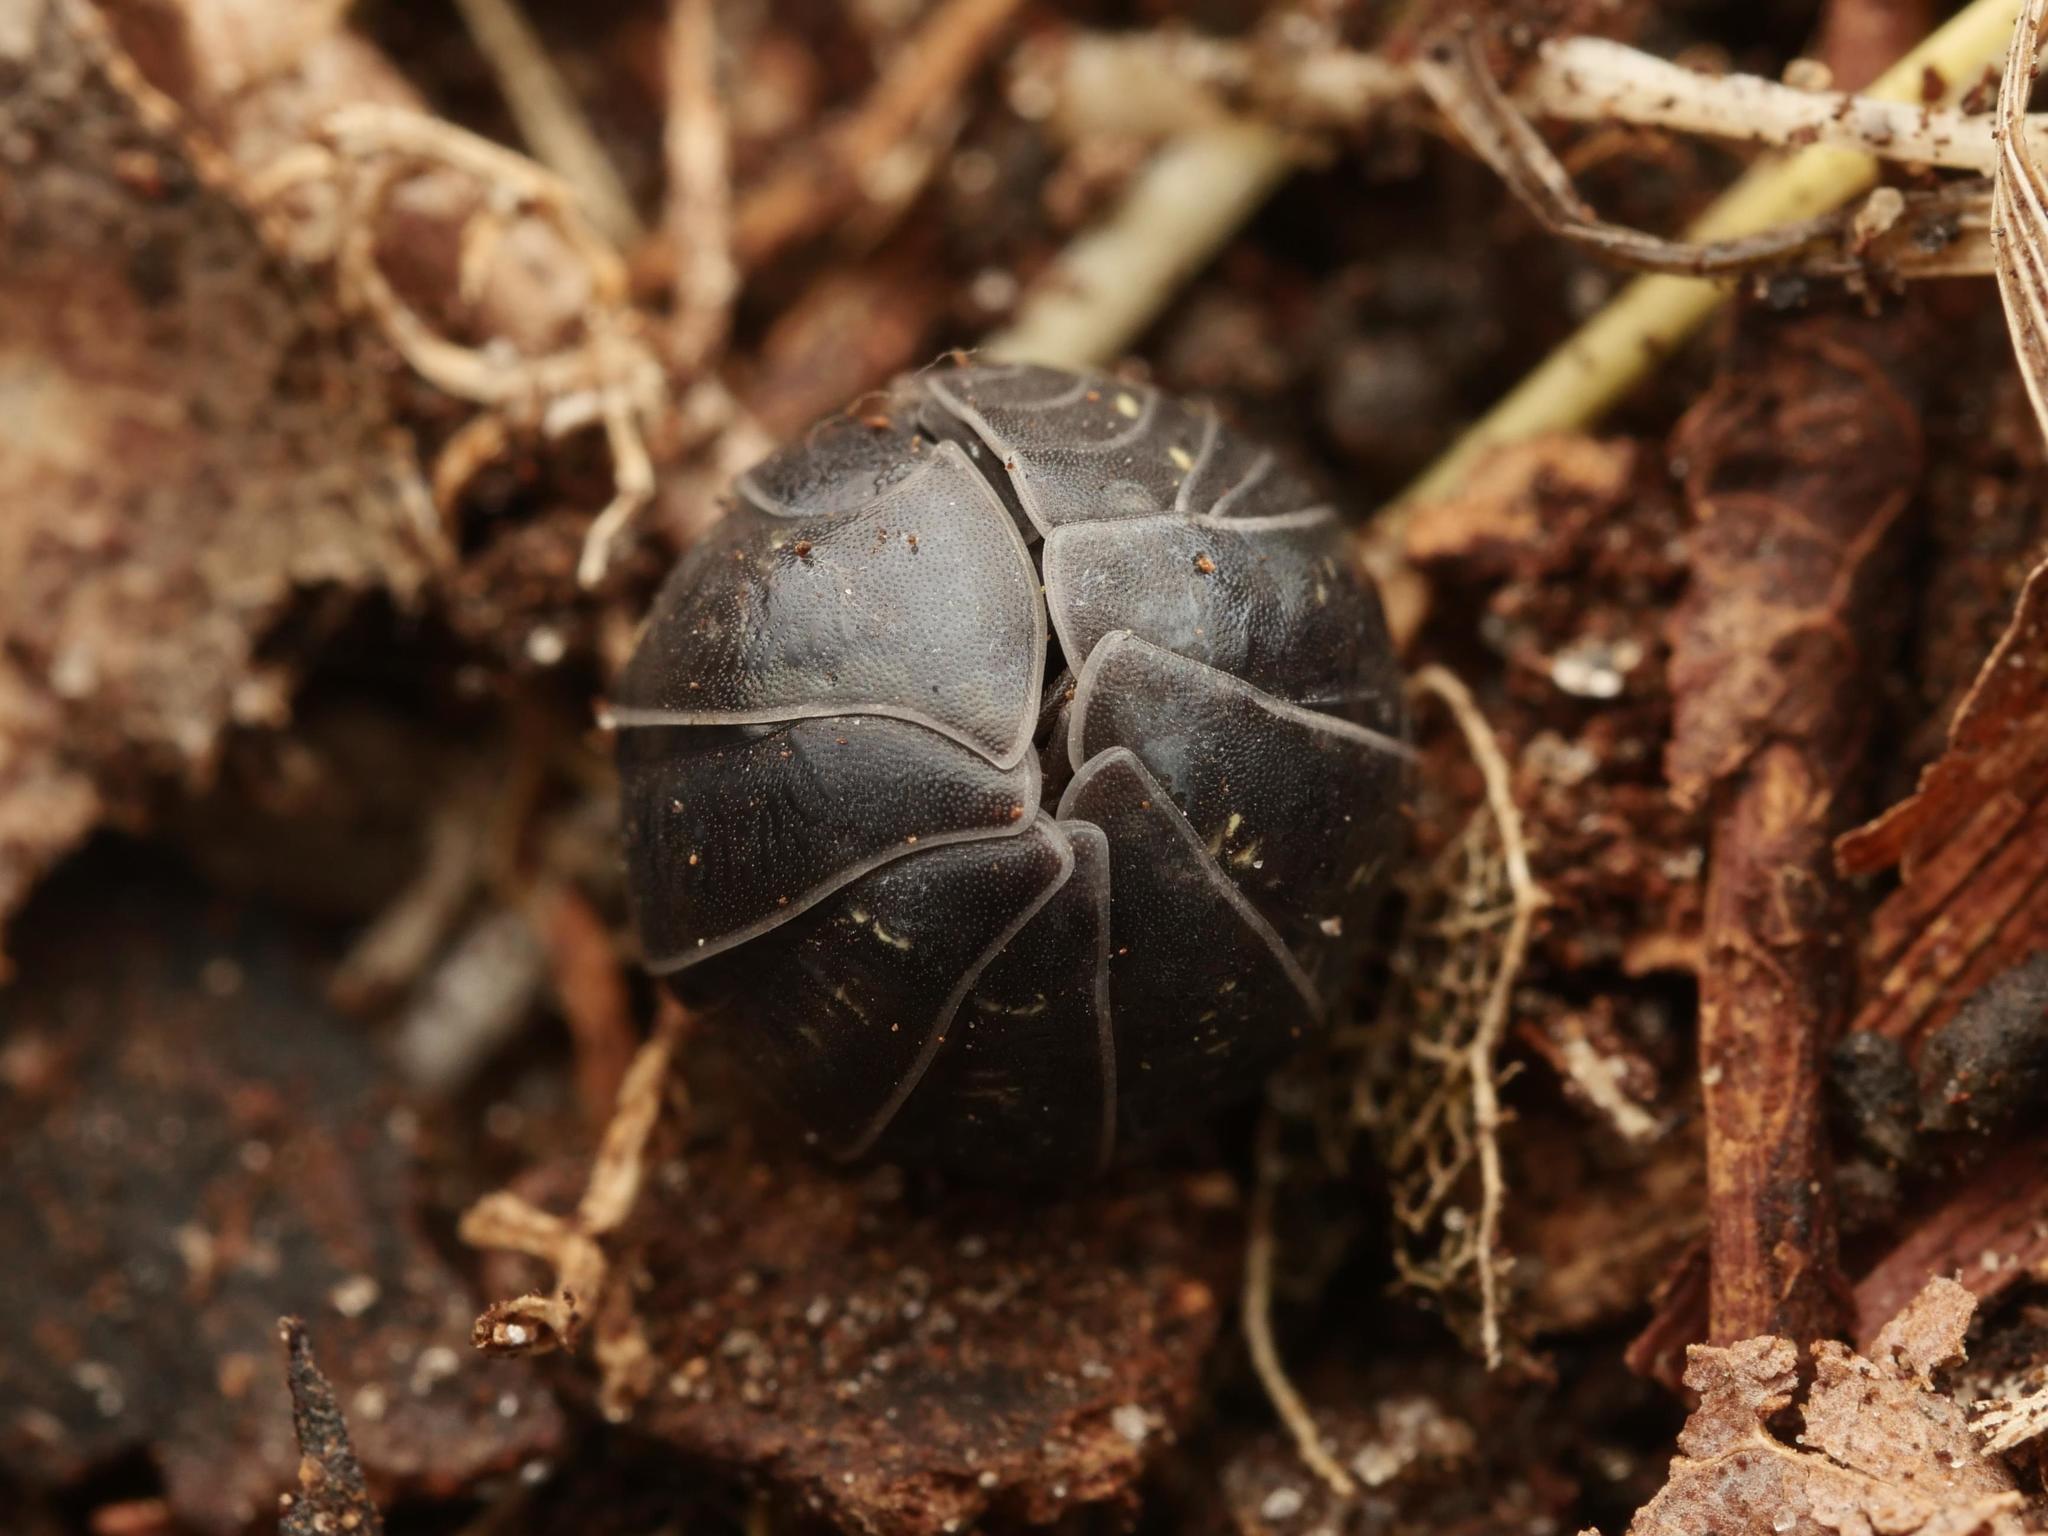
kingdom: Animalia
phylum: Arthropoda
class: Malacostraca
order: Isopoda
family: Armadillidiidae
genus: Armadillidium
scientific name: Armadillidium vulgare
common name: Common pill woodlouse
